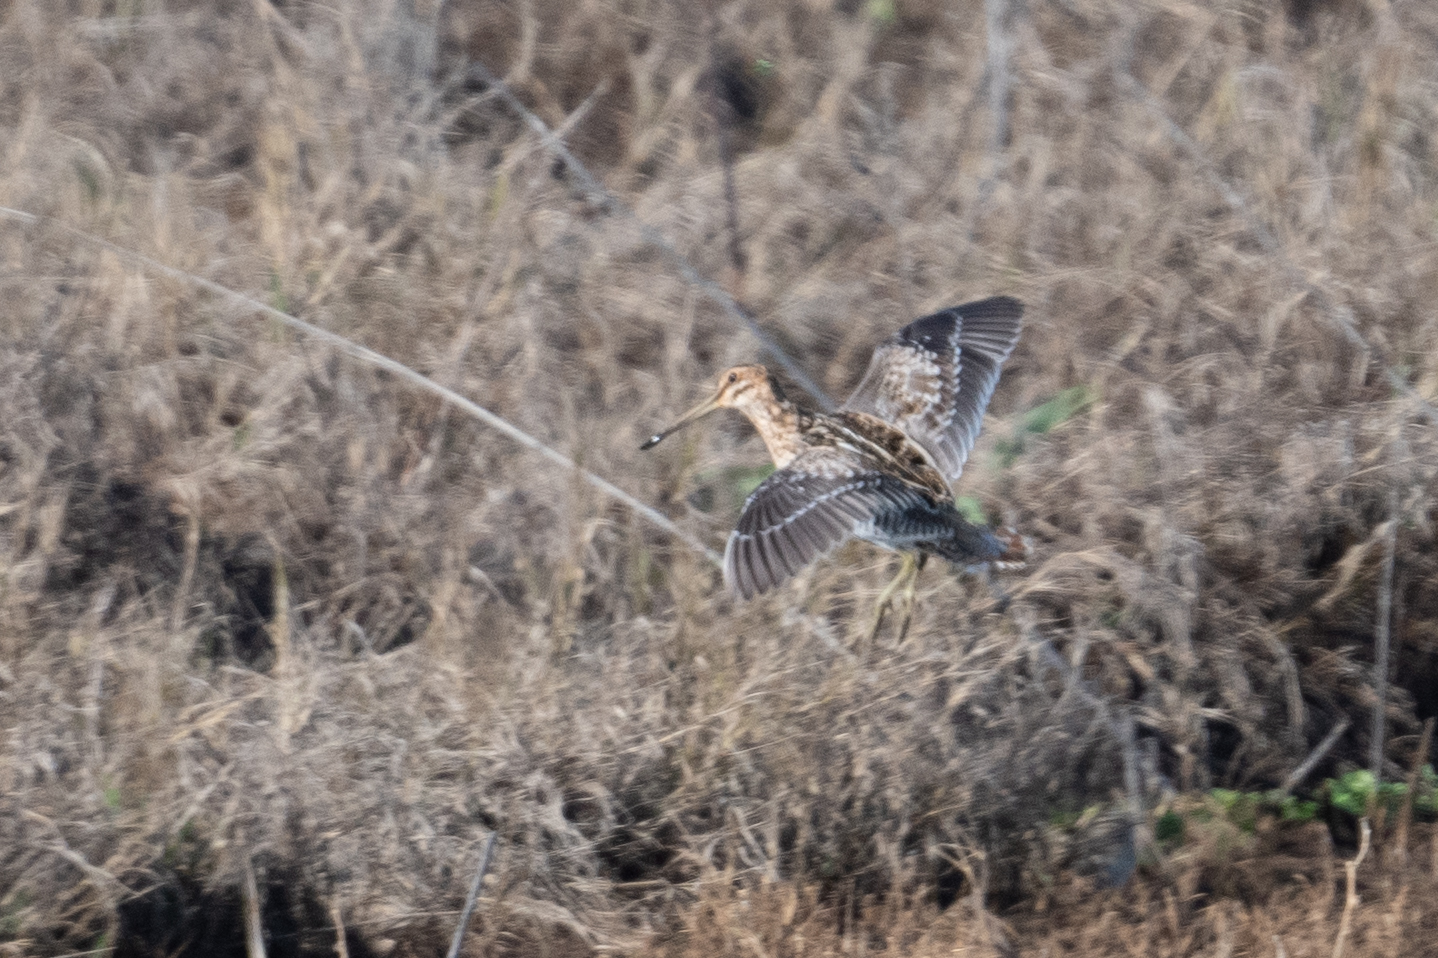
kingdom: Animalia
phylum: Chordata
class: Aves
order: Charadriiformes
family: Scolopacidae
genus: Gallinago
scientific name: Gallinago delicata
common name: Wilson's snipe
